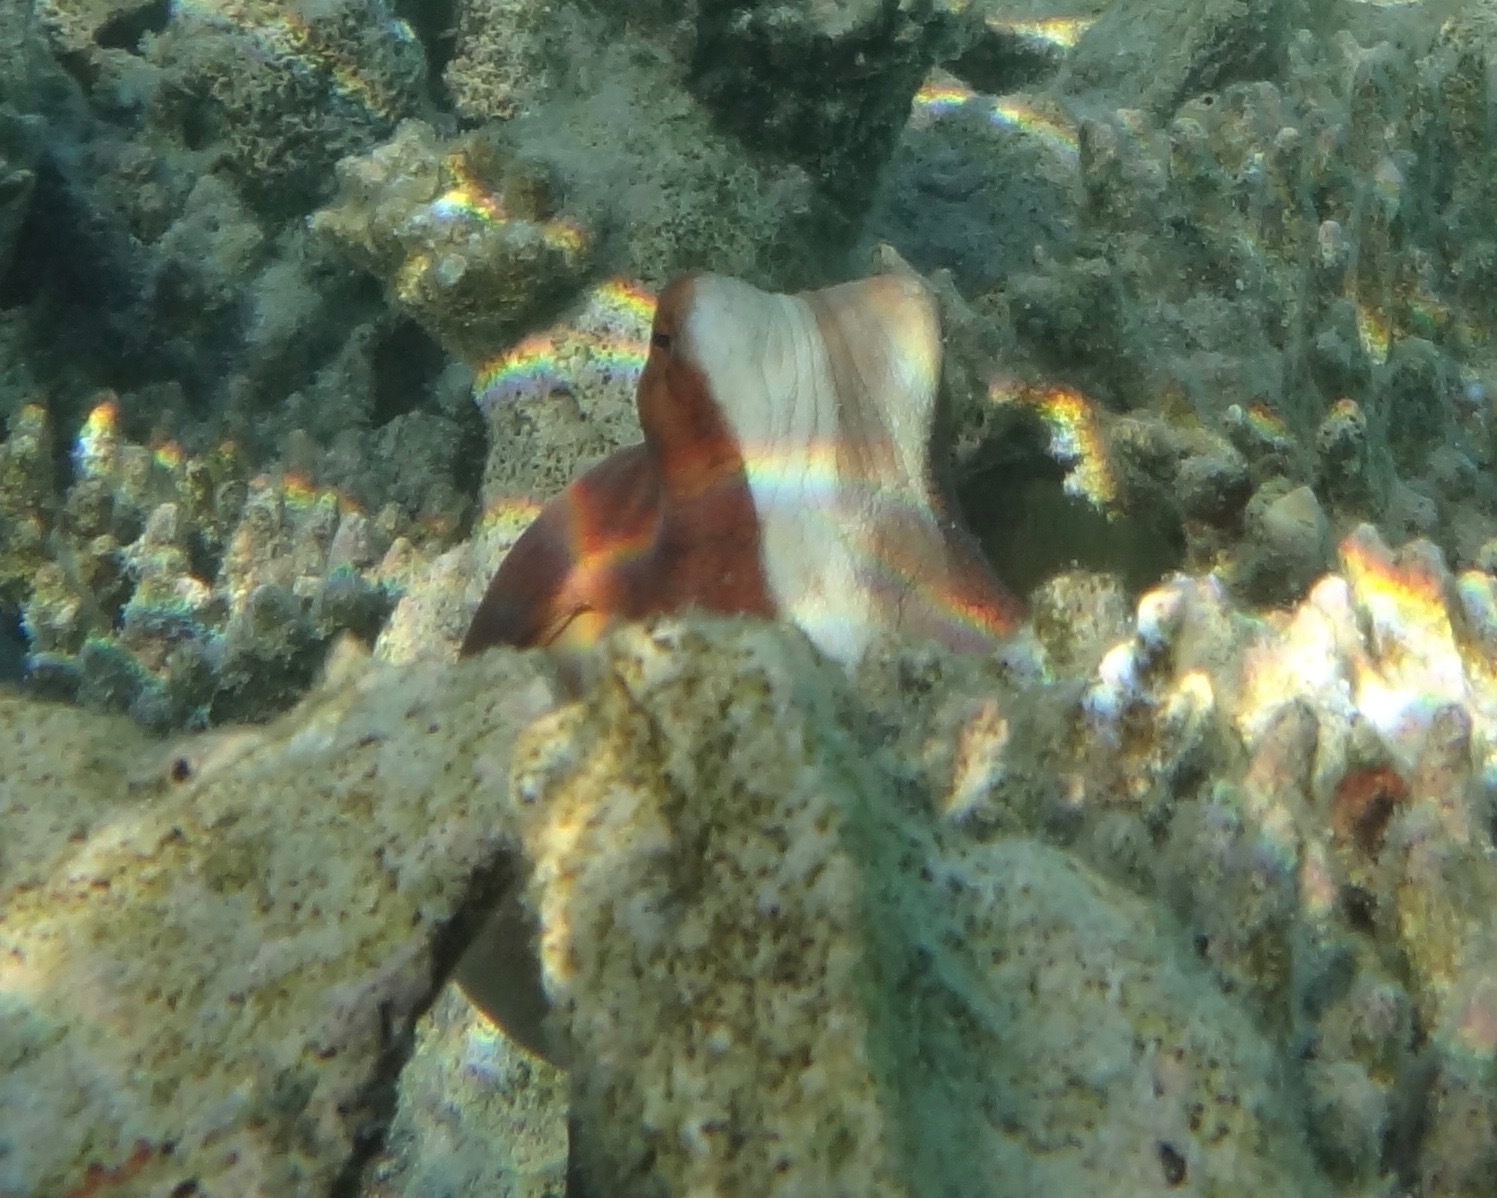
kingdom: Animalia
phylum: Mollusca
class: Cephalopoda
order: Octopoda
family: Octopodidae
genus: Octopus
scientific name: Octopus cyanea
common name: Cyane's octopus
